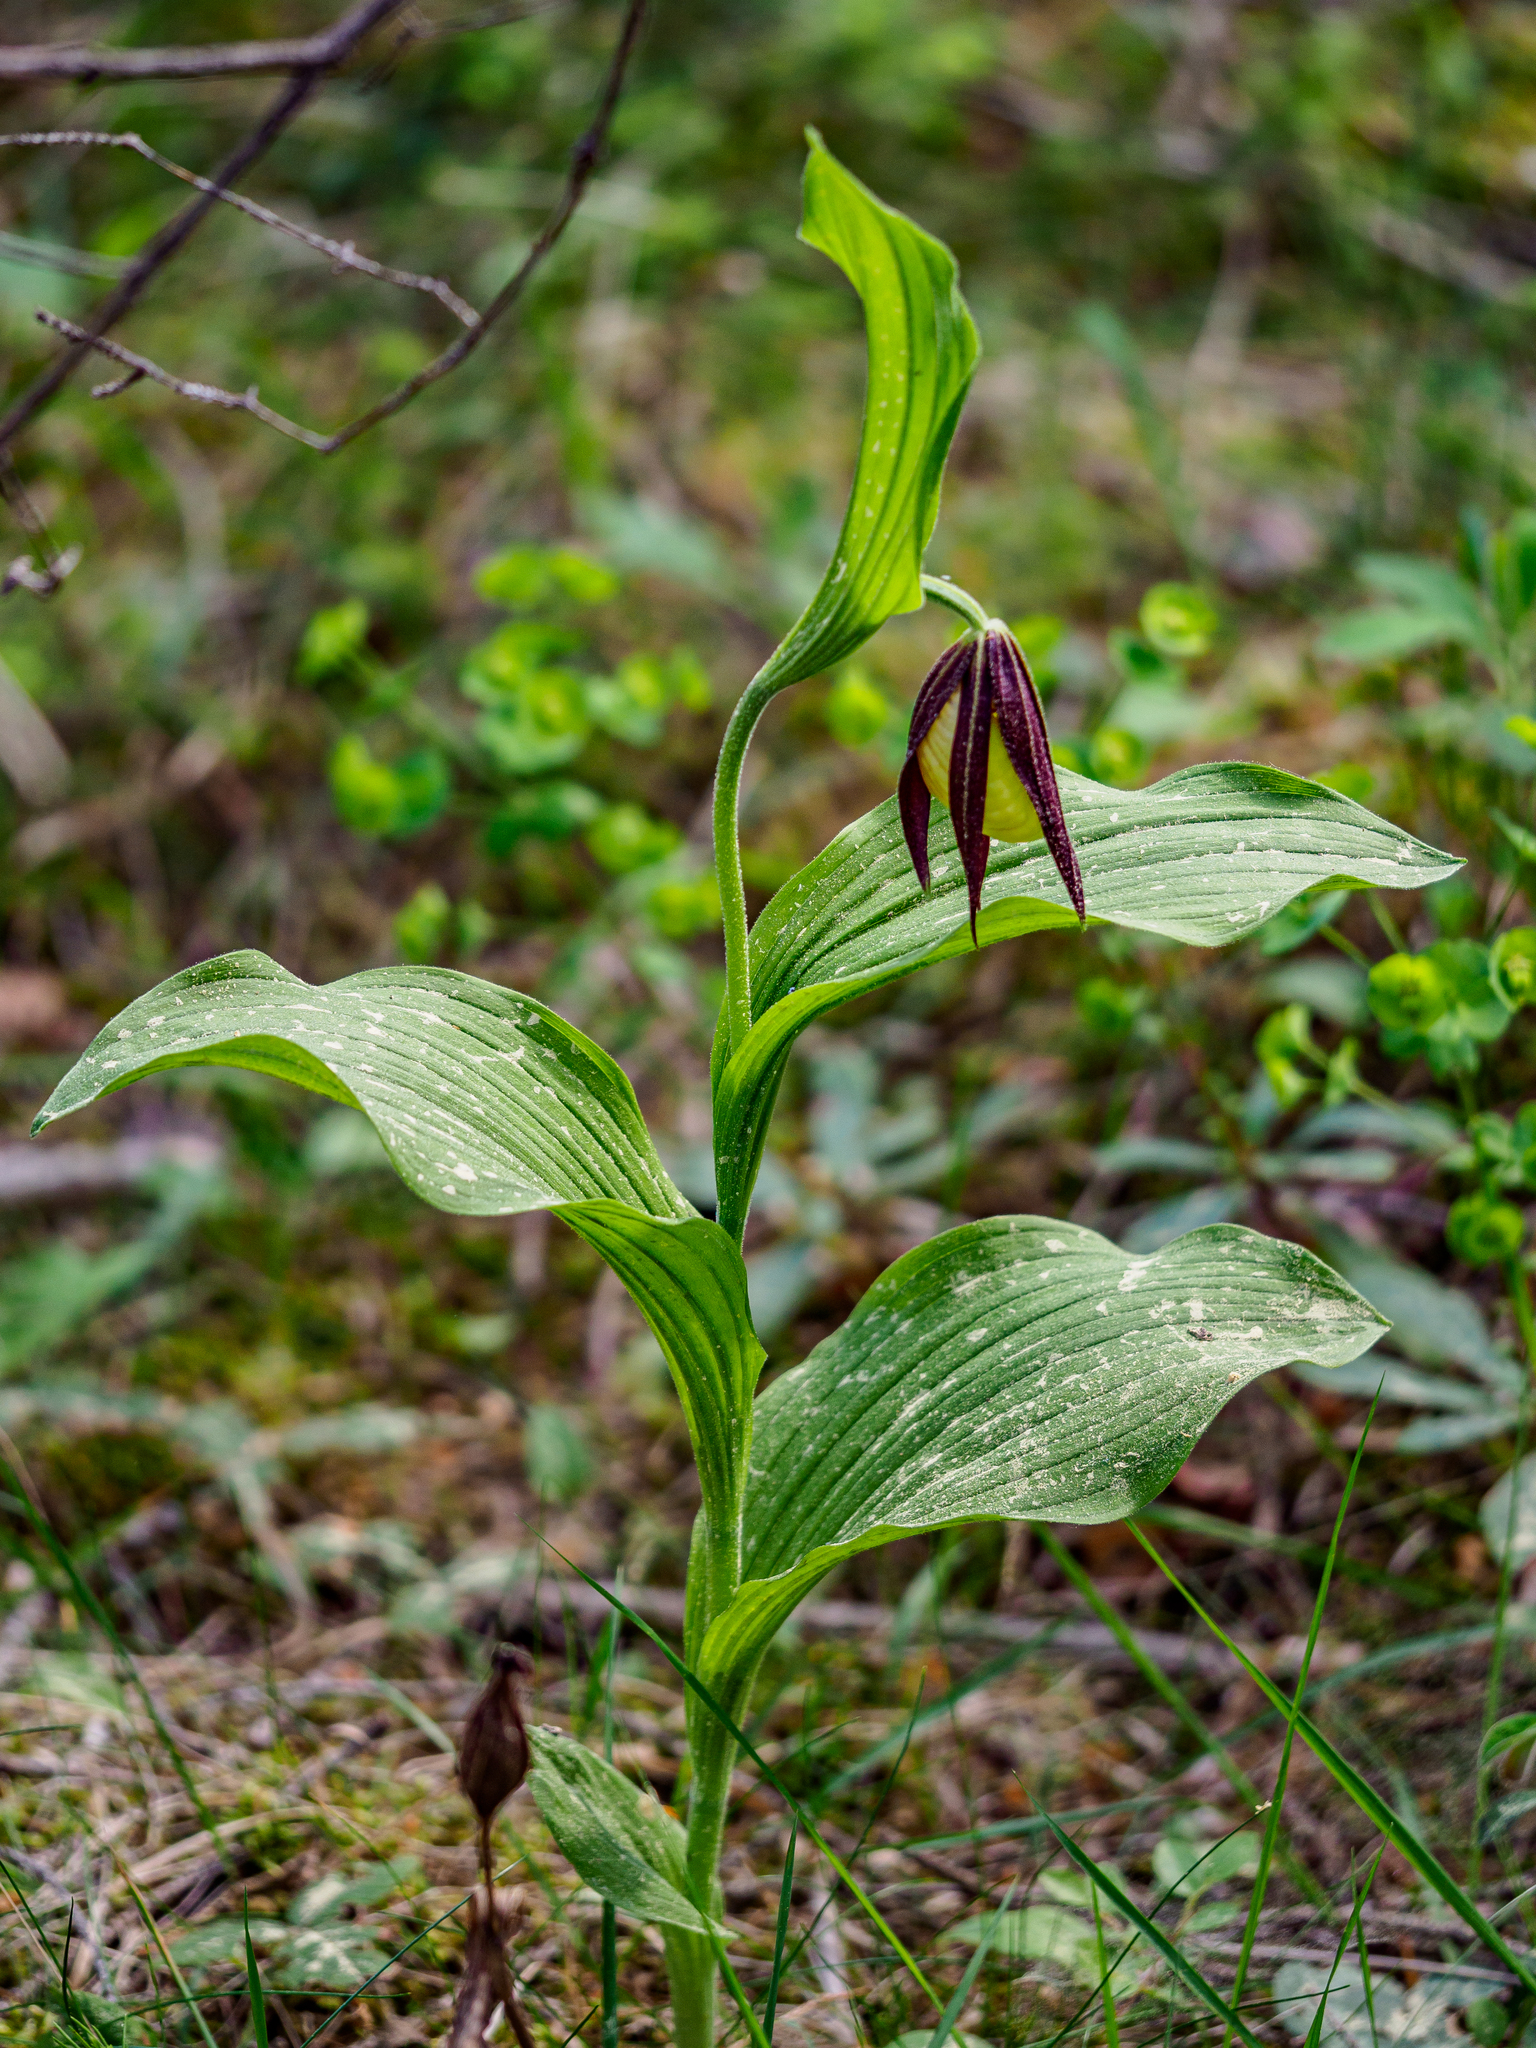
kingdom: Plantae
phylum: Tracheophyta
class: Liliopsida
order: Asparagales
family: Orchidaceae
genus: Cypripedium
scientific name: Cypripedium calceolus
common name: Lady's-slipper
